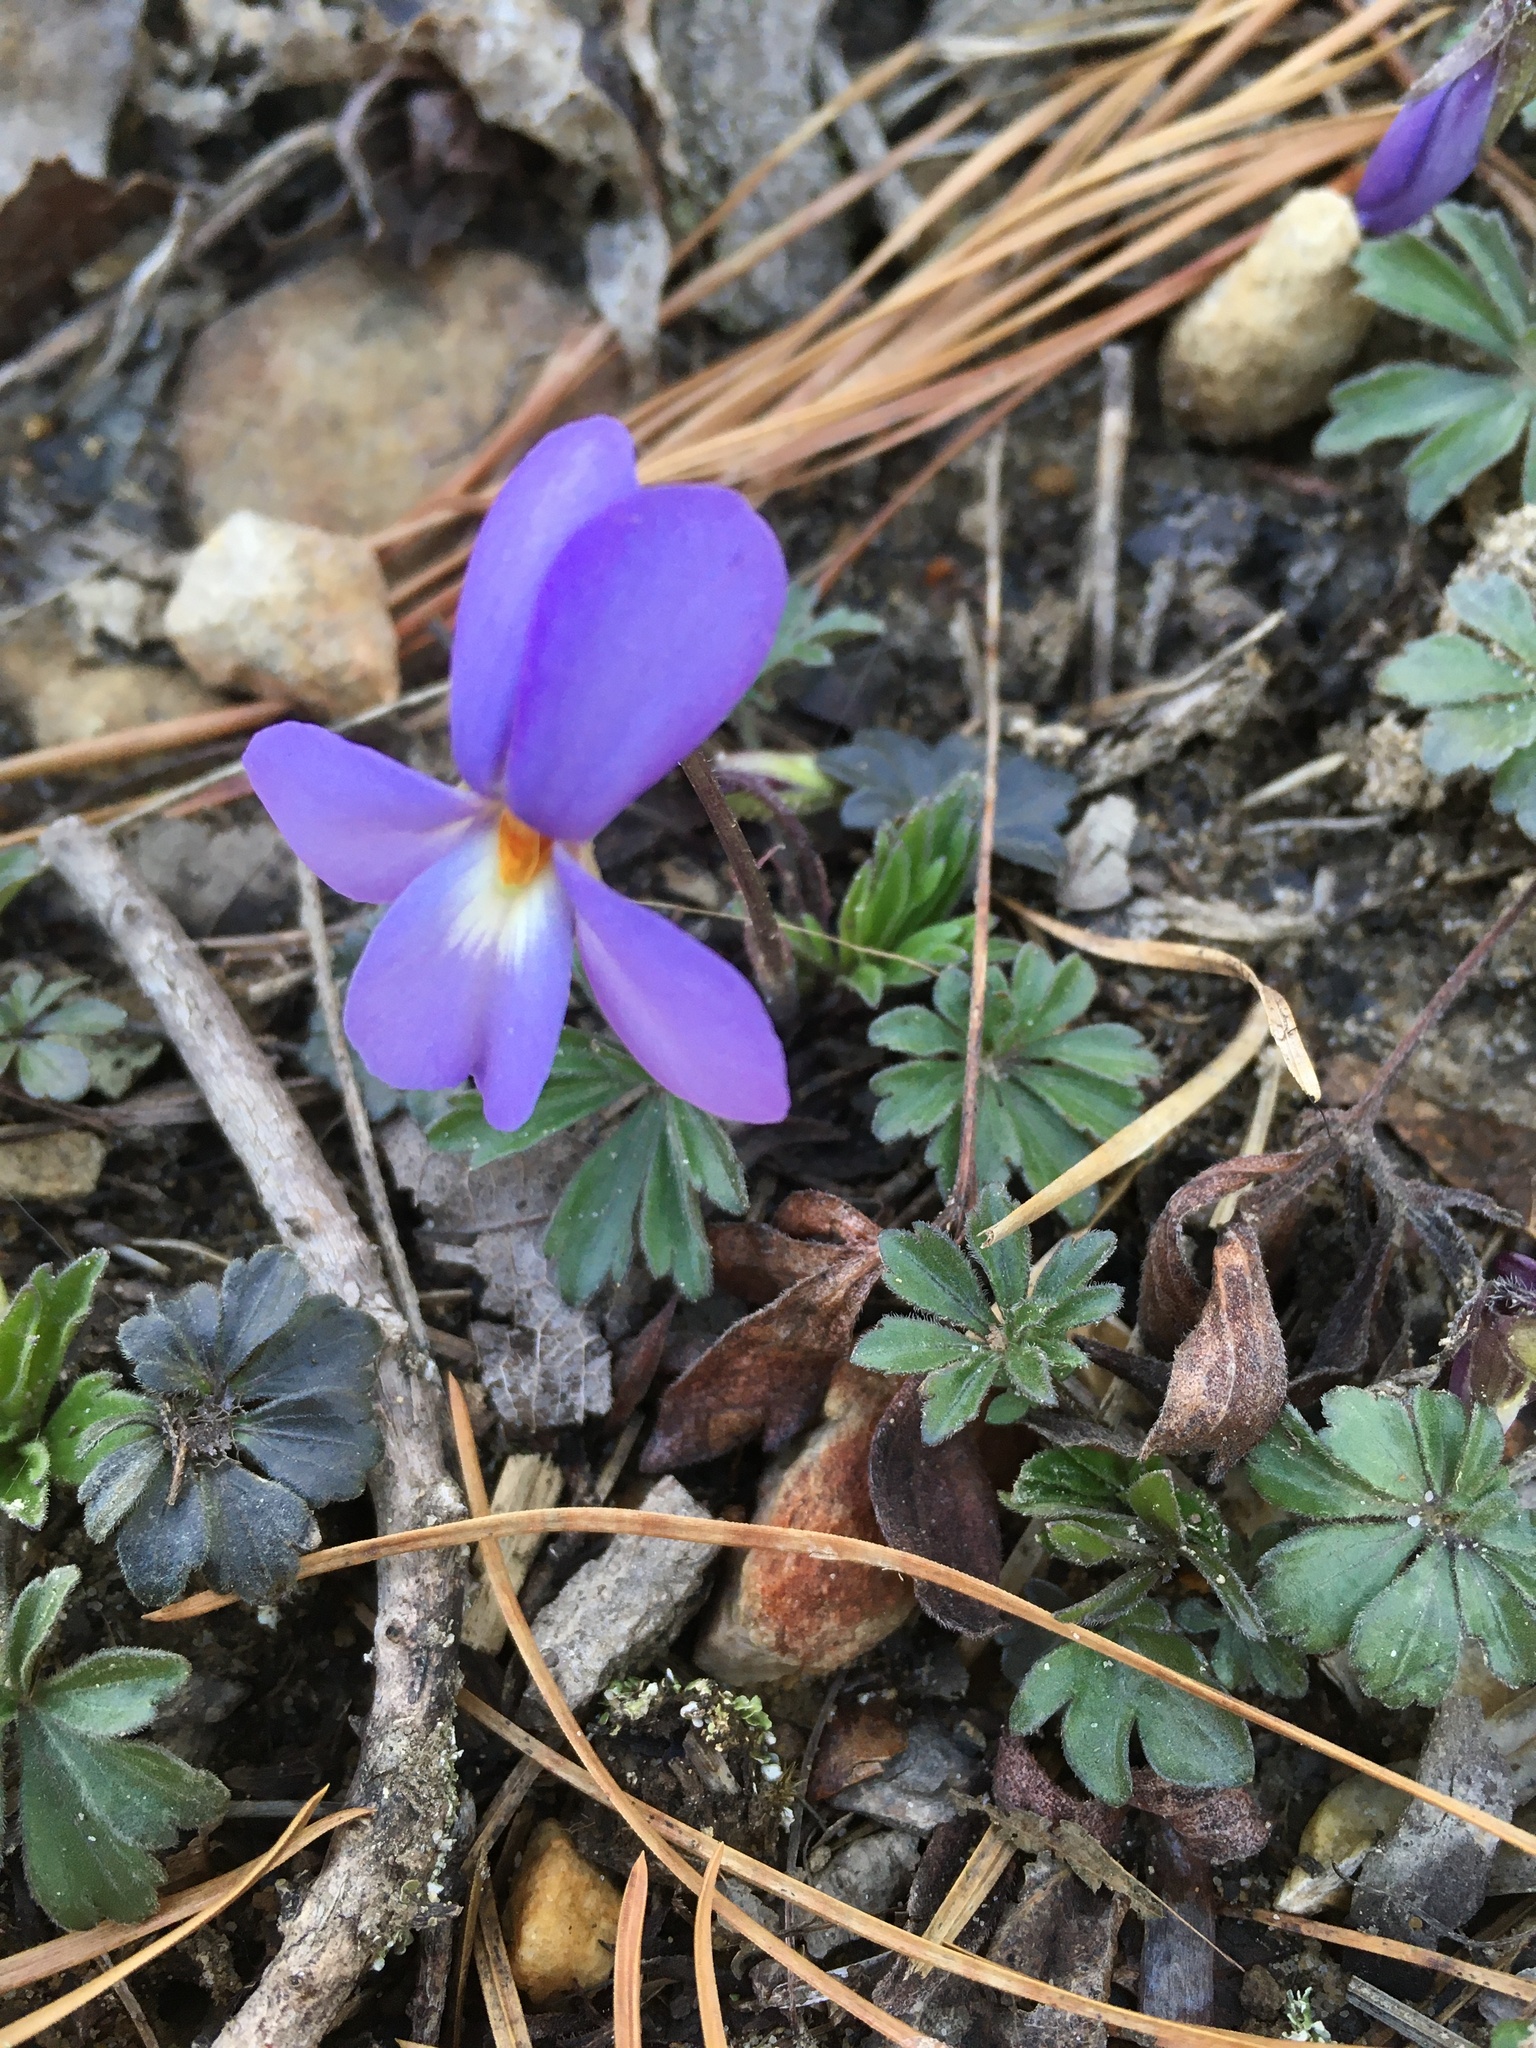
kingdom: Plantae
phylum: Tracheophyta
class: Magnoliopsida
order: Malpighiales
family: Violaceae
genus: Viola
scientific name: Viola pedata
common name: Pansy violet
